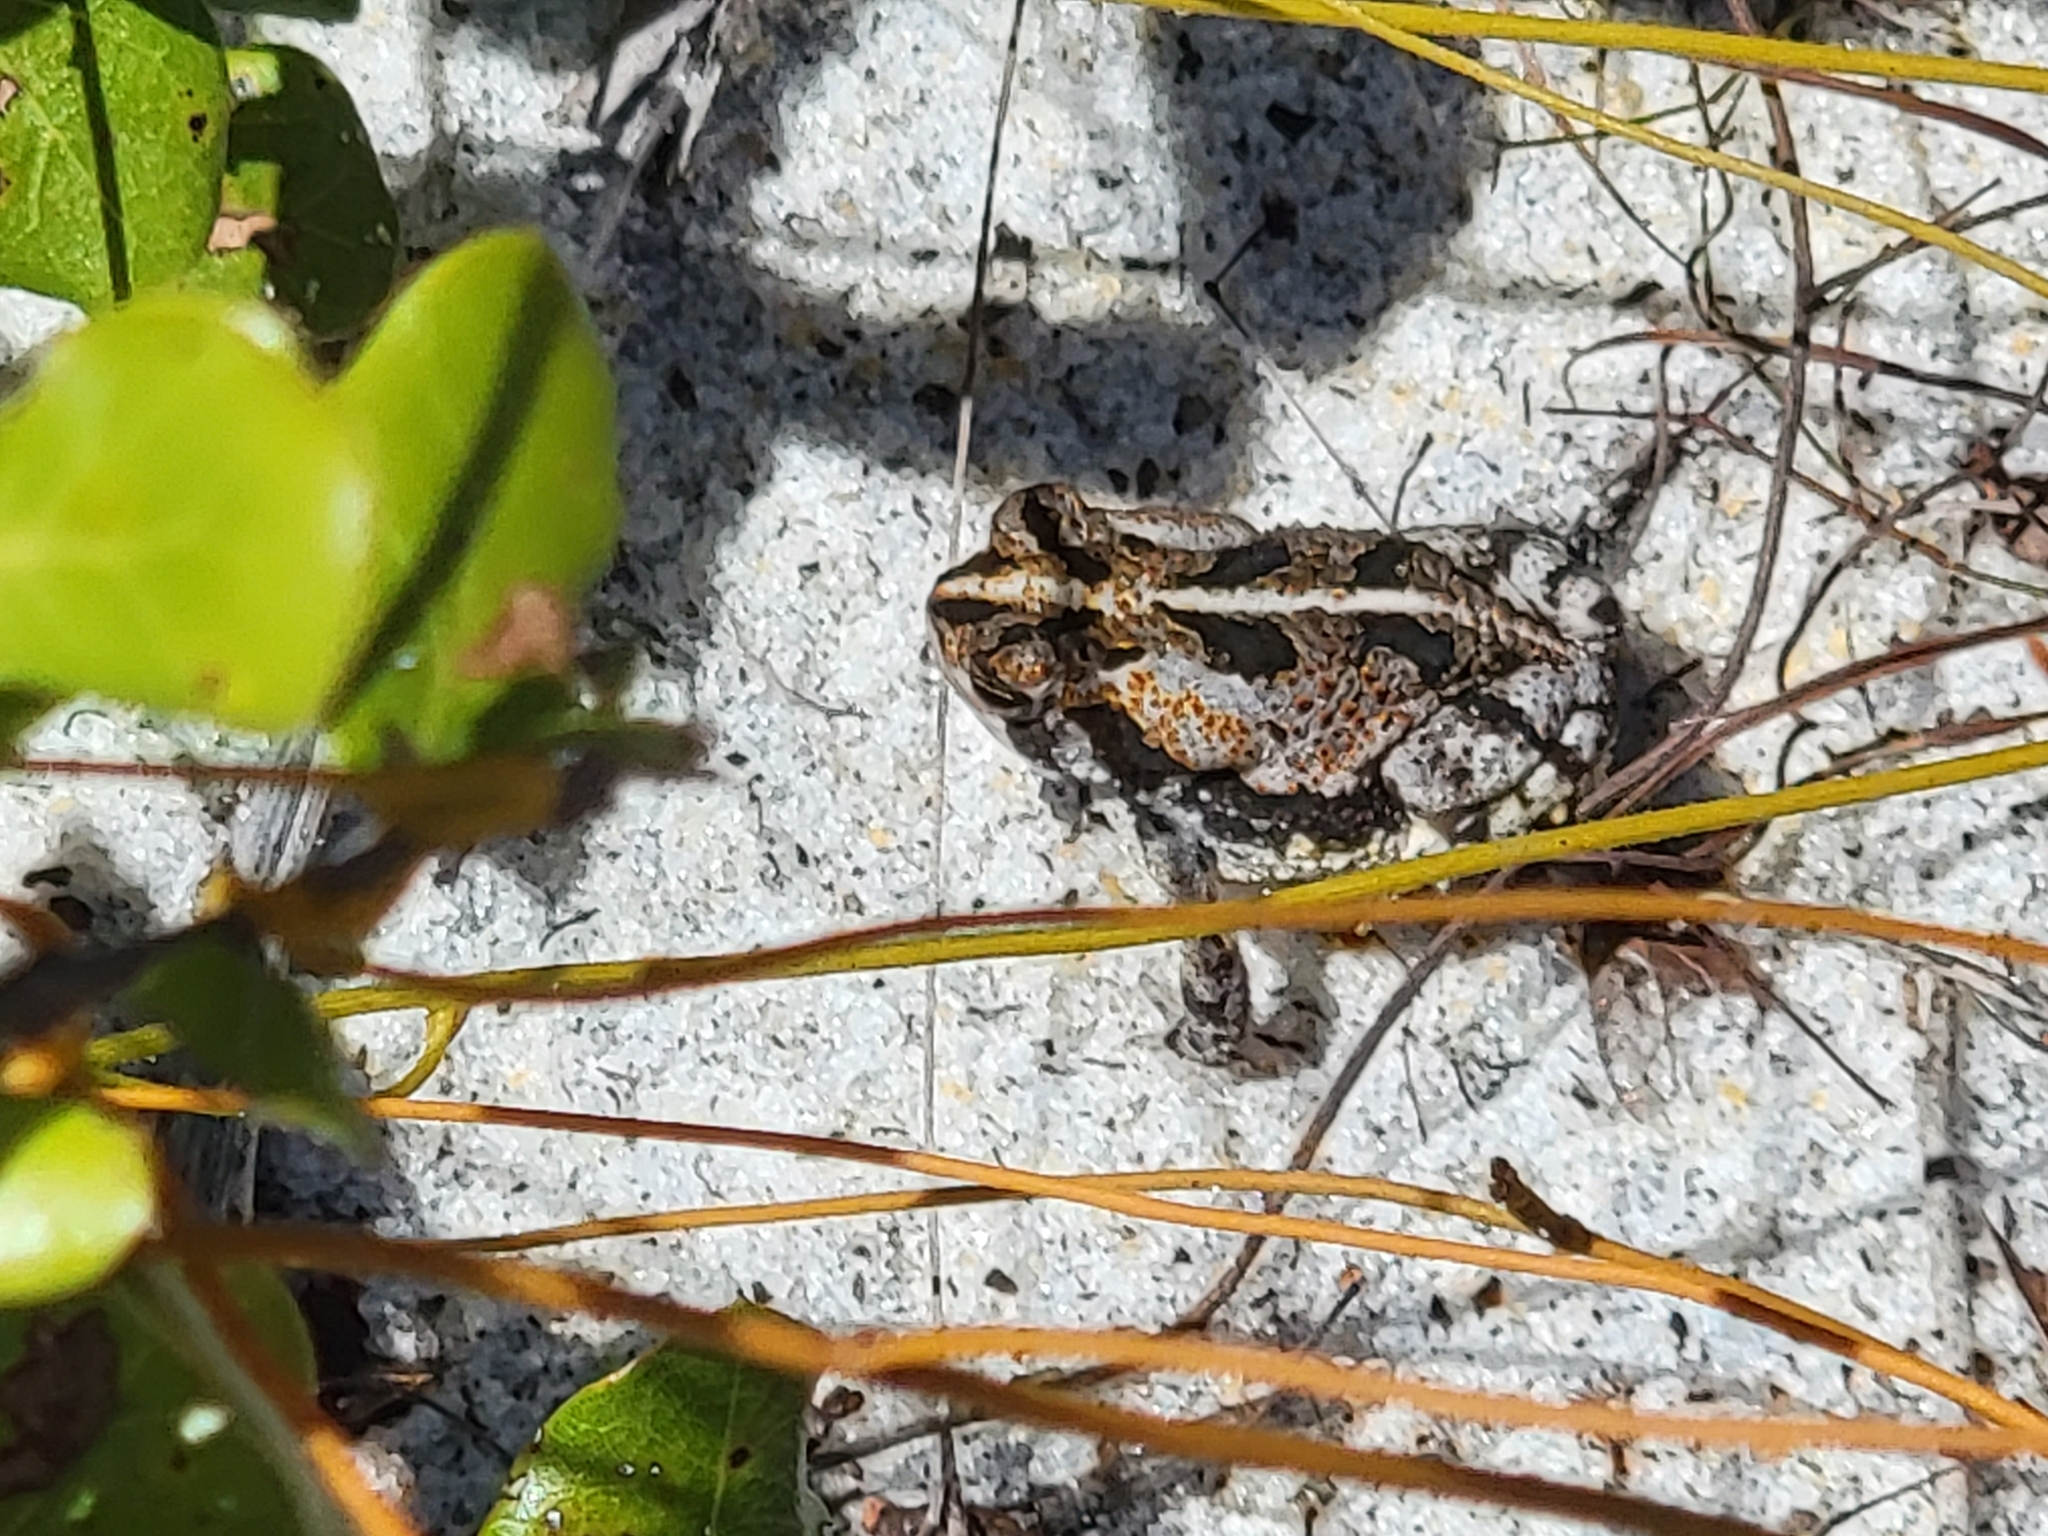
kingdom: Animalia
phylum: Chordata
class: Amphibia
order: Anura
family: Bufonidae
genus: Anaxyrus
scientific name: Anaxyrus quercicus
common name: Oak toad
